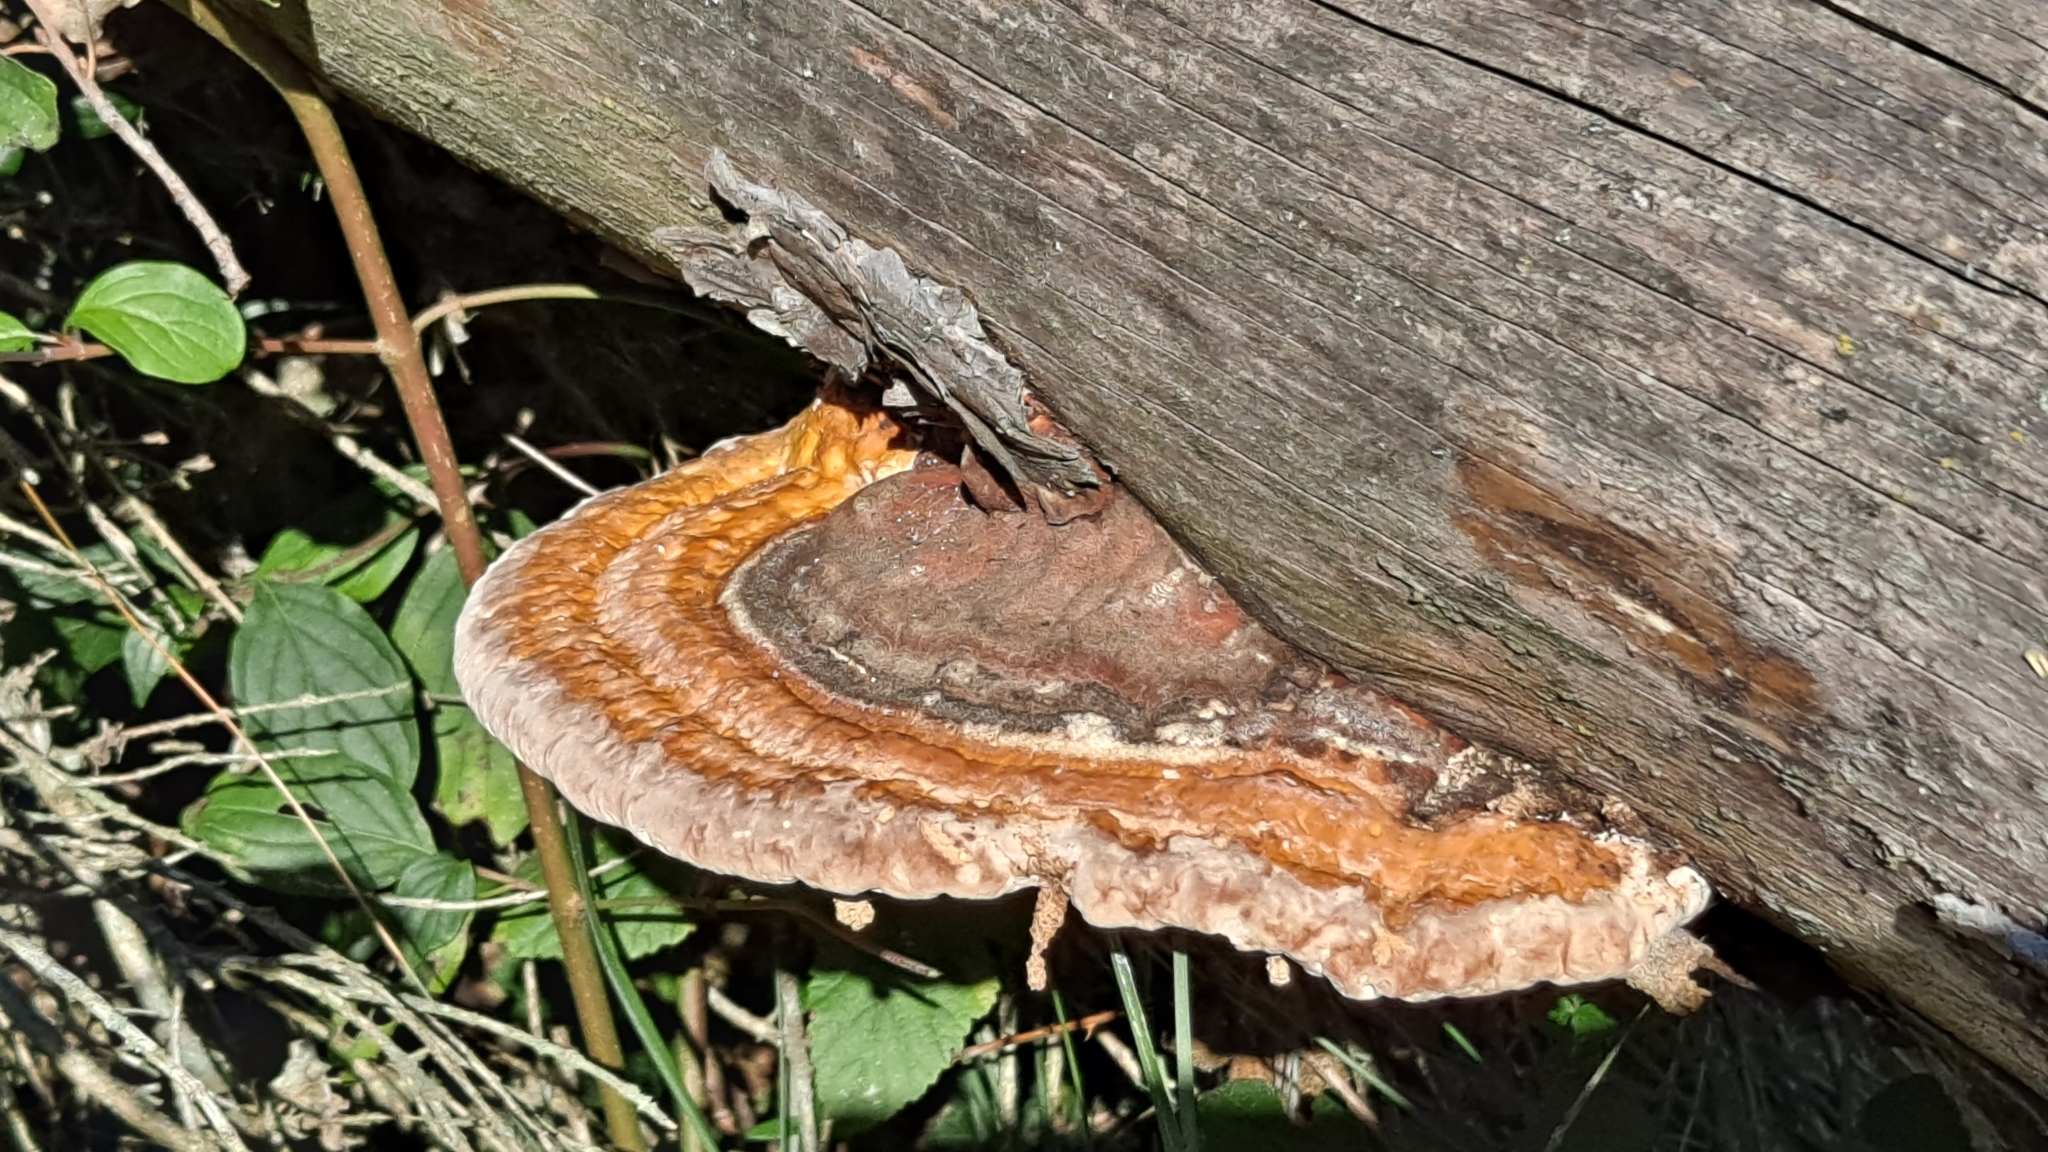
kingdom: Fungi
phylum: Basidiomycota
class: Agaricomycetes
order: Polyporales
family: Fomitopsidaceae
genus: Fomitopsis
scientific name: Fomitopsis pinicola
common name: Red-belted bracket
